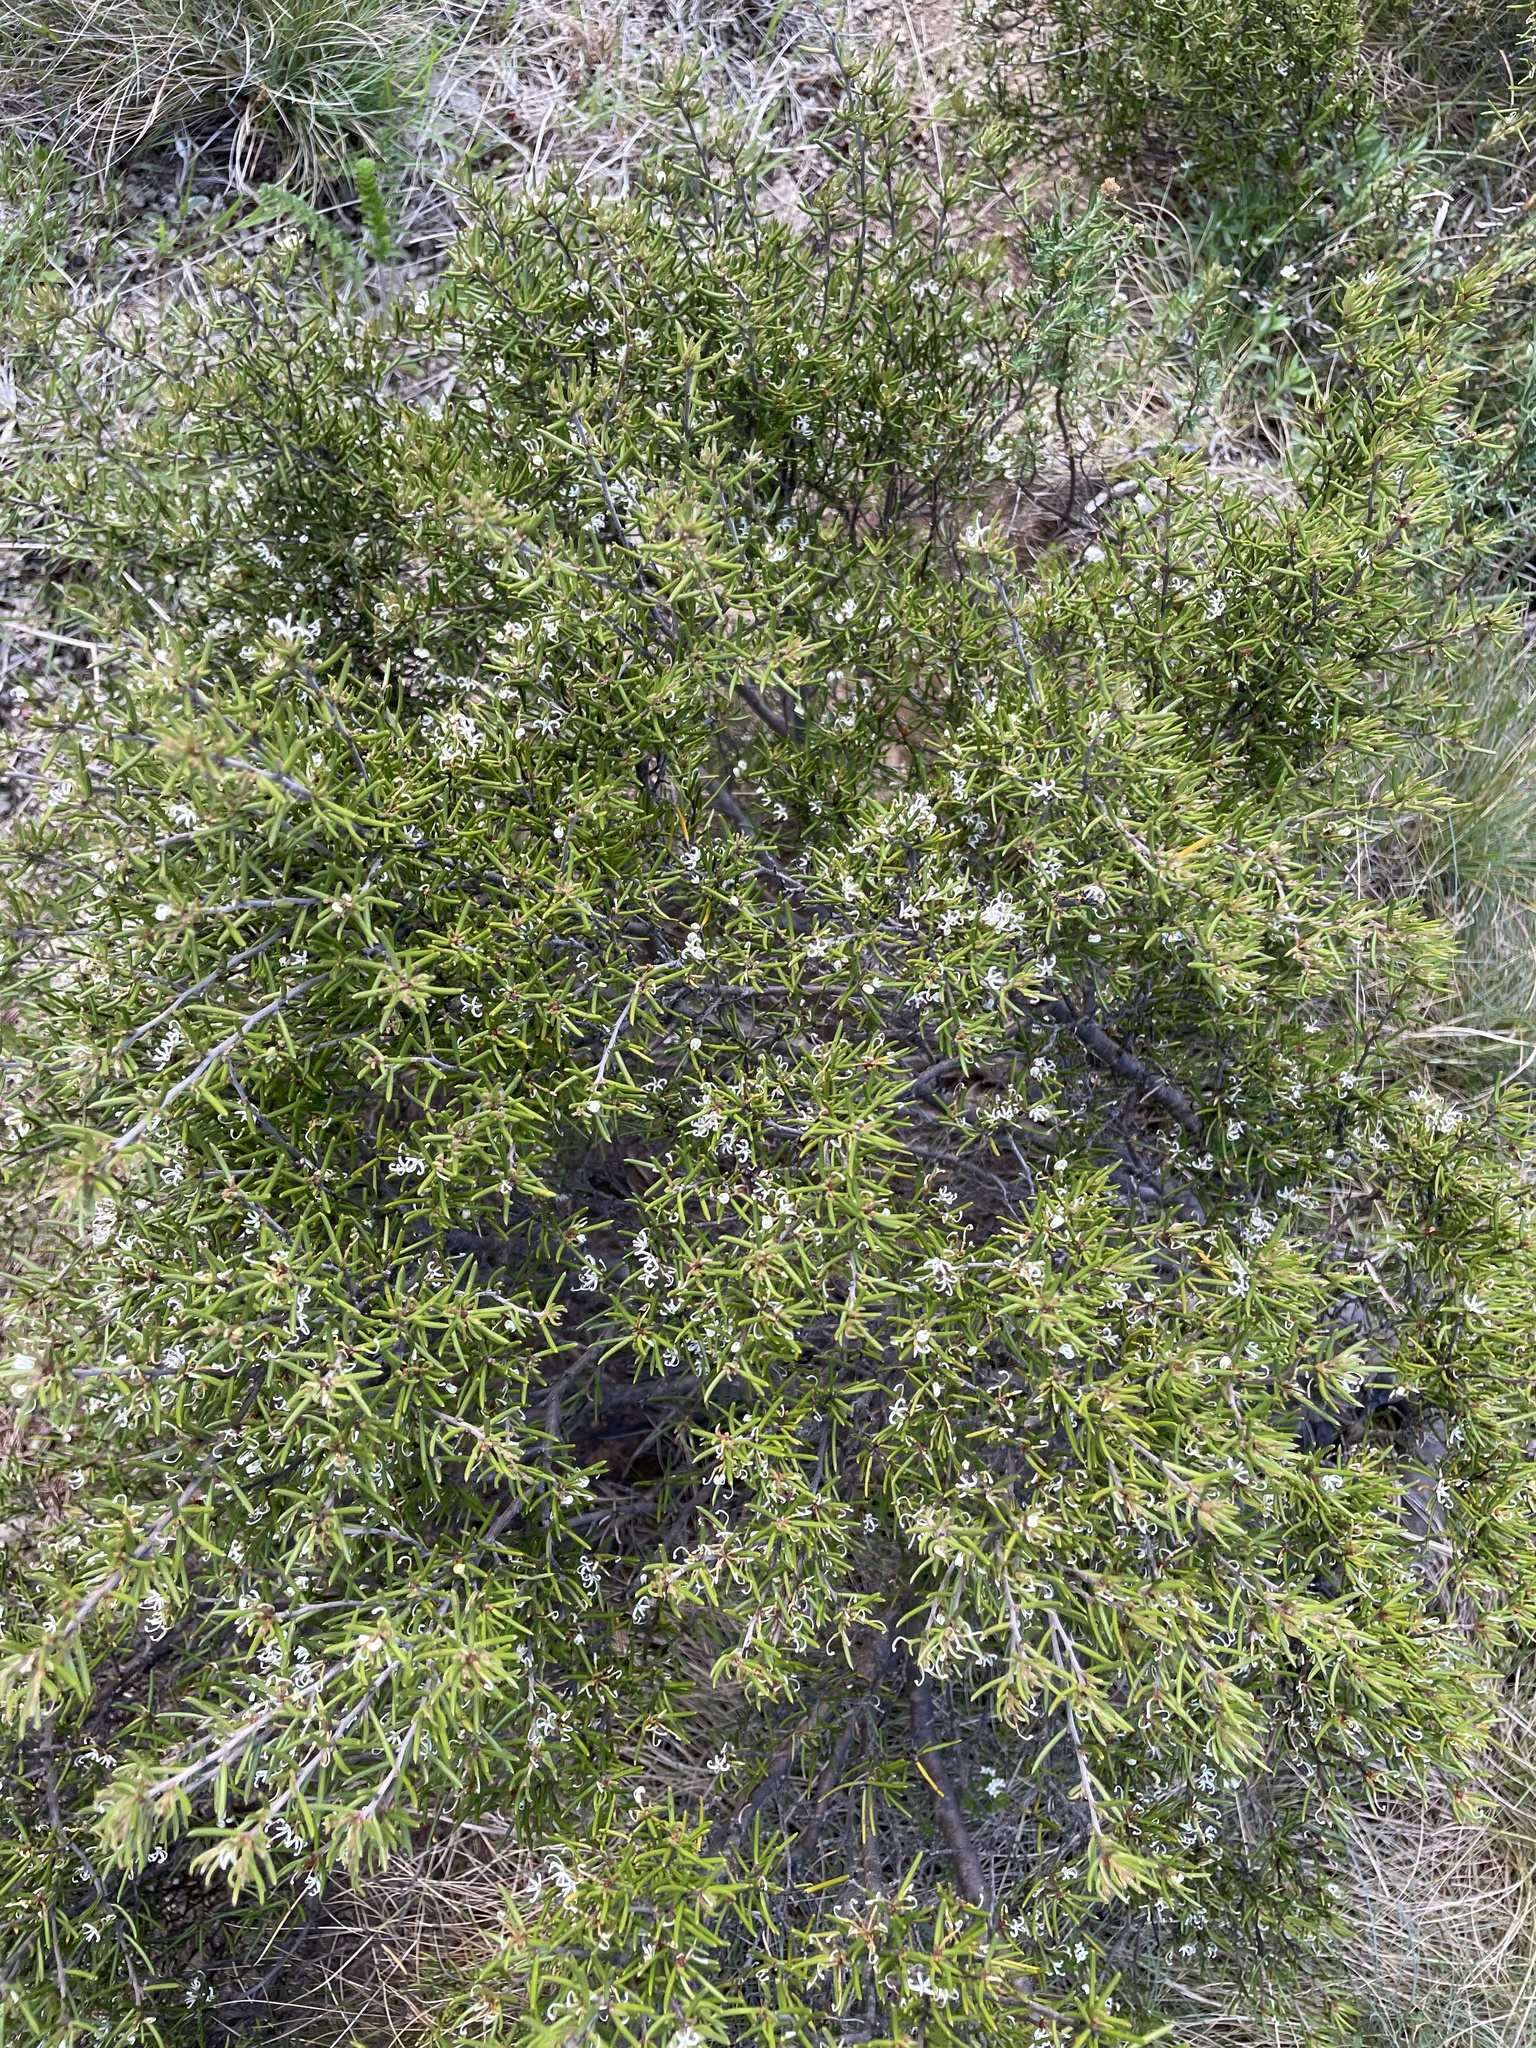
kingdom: Plantae
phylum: Tracheophyta
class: Magnoliopsida
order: Proteales
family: Proteaceae
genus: Grevillea
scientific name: Grevillea australis
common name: Alpine grevillea
